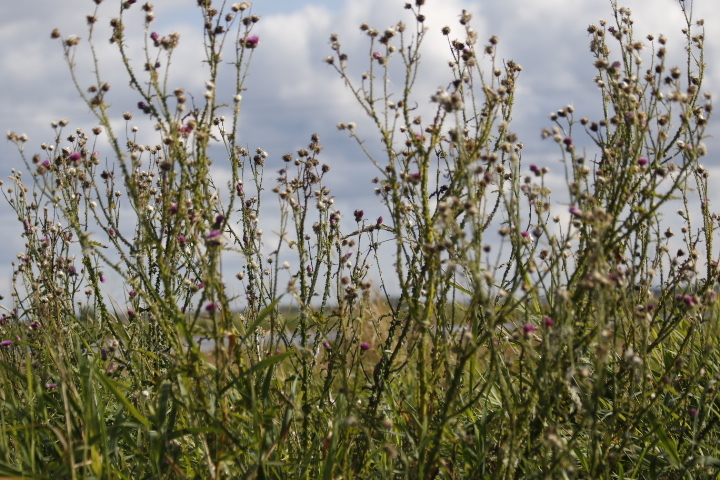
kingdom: Plantae
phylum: Tracheophyta
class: Magnoliopsida
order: Asterales
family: Asteraceae
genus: Carduus
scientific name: Carduus crispus
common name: Welted thistle
